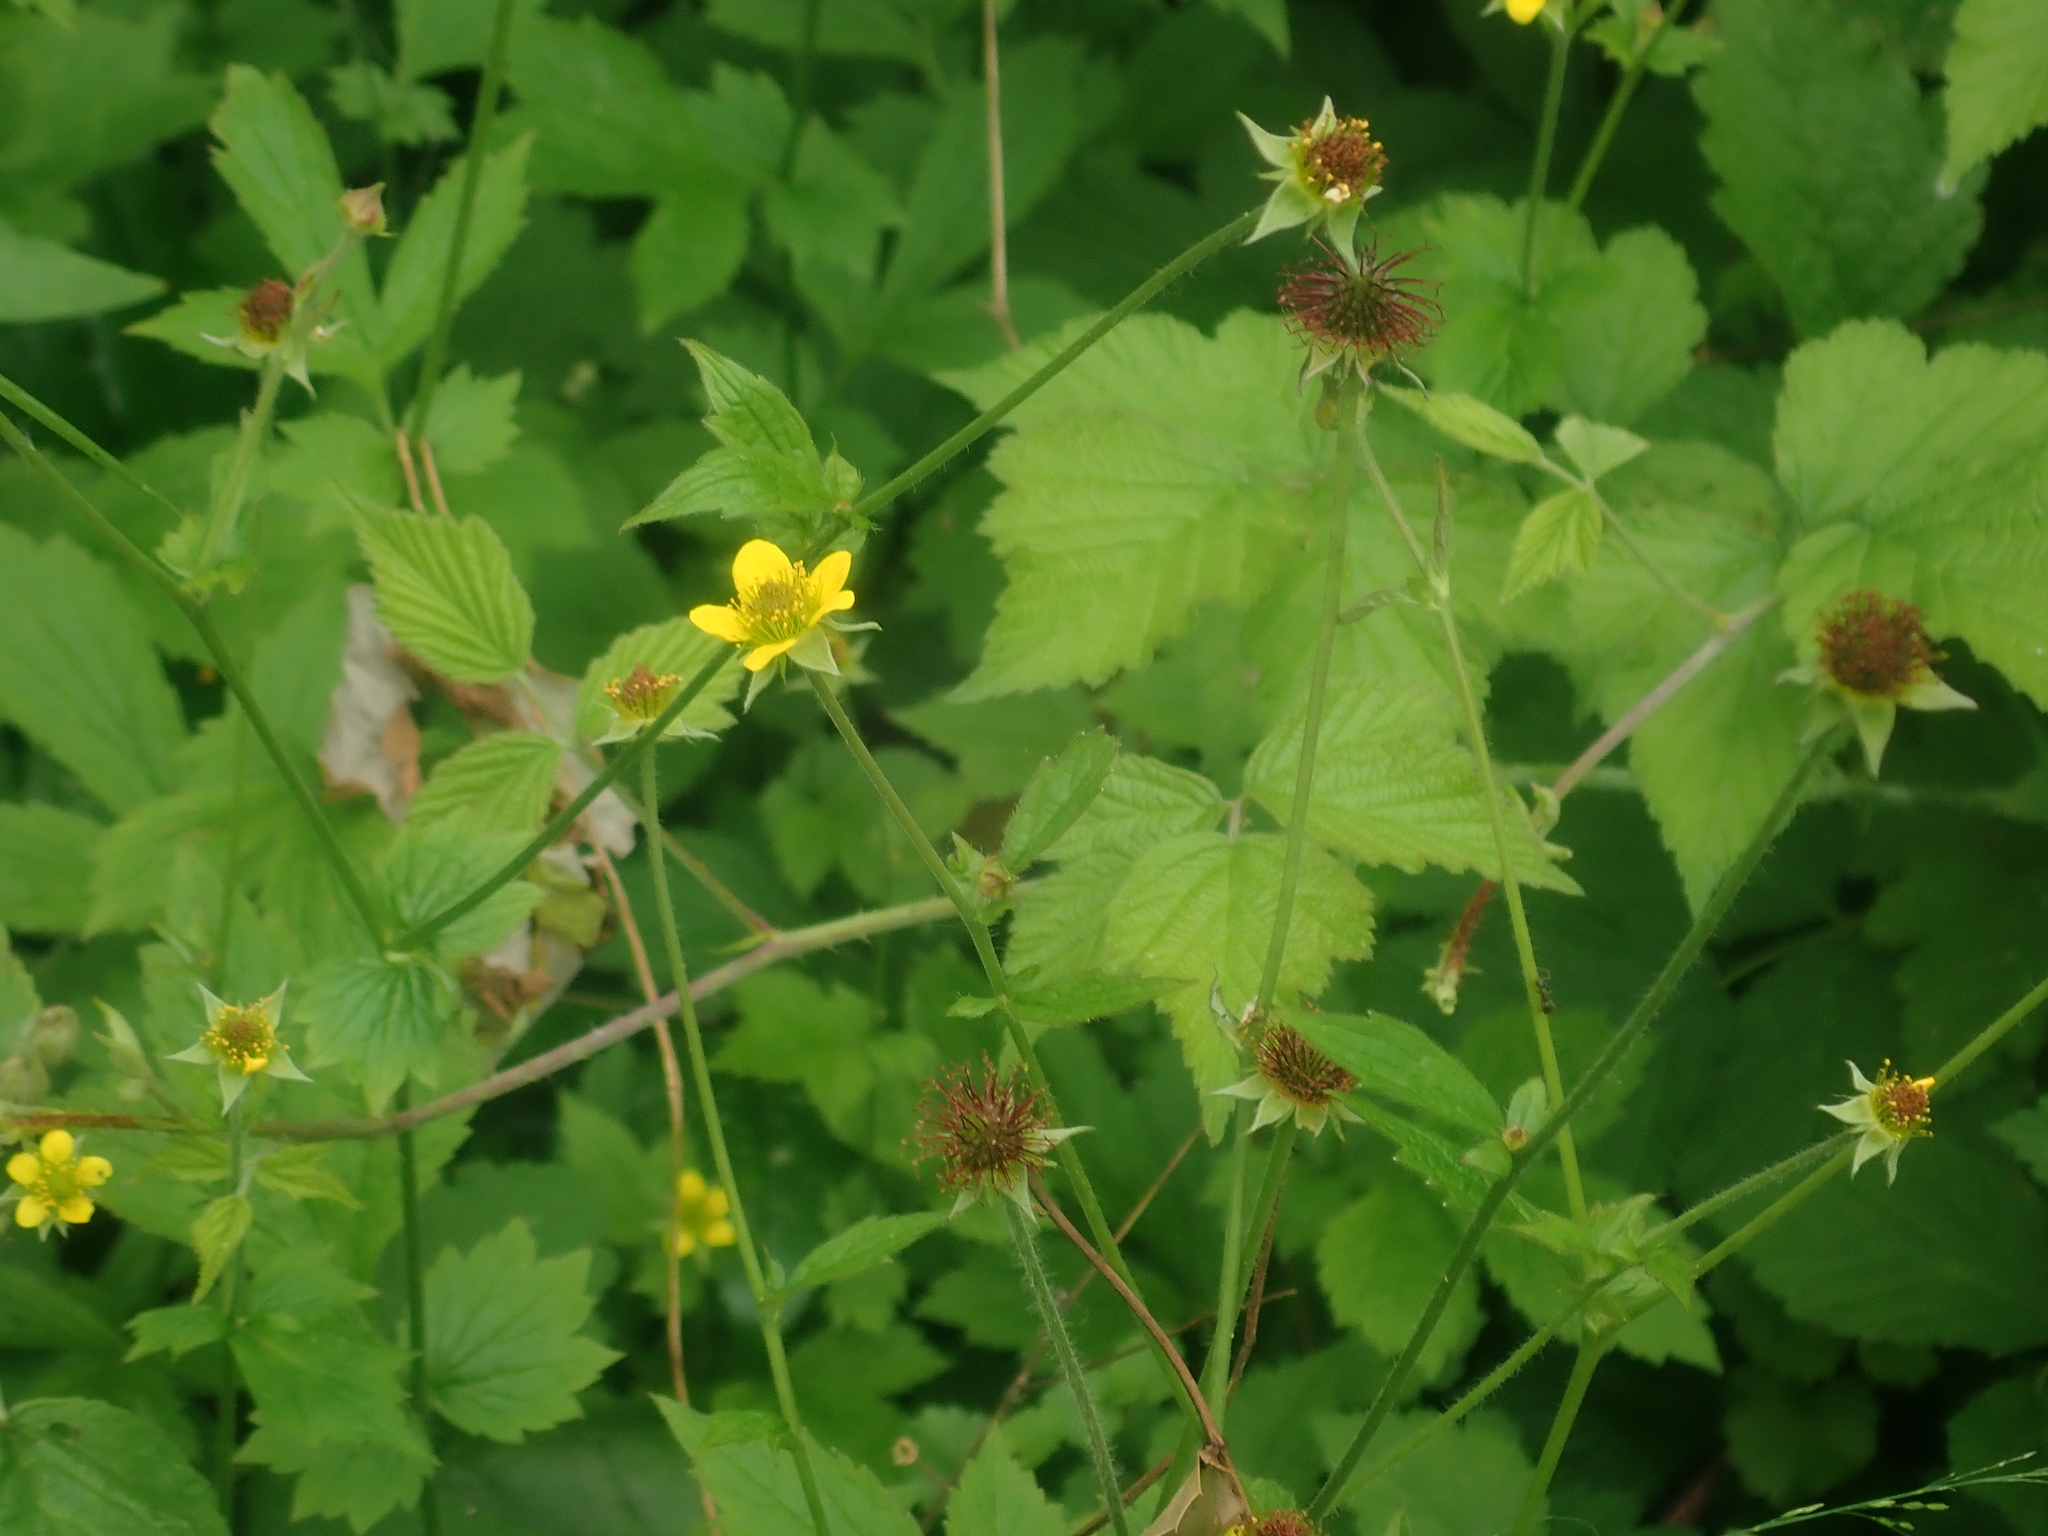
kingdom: Plantae
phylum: Tracheophyta
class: Magnoliopsida
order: Rosales
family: Rosaceae
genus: Geum
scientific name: Geum urbanum
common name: Wood avens
